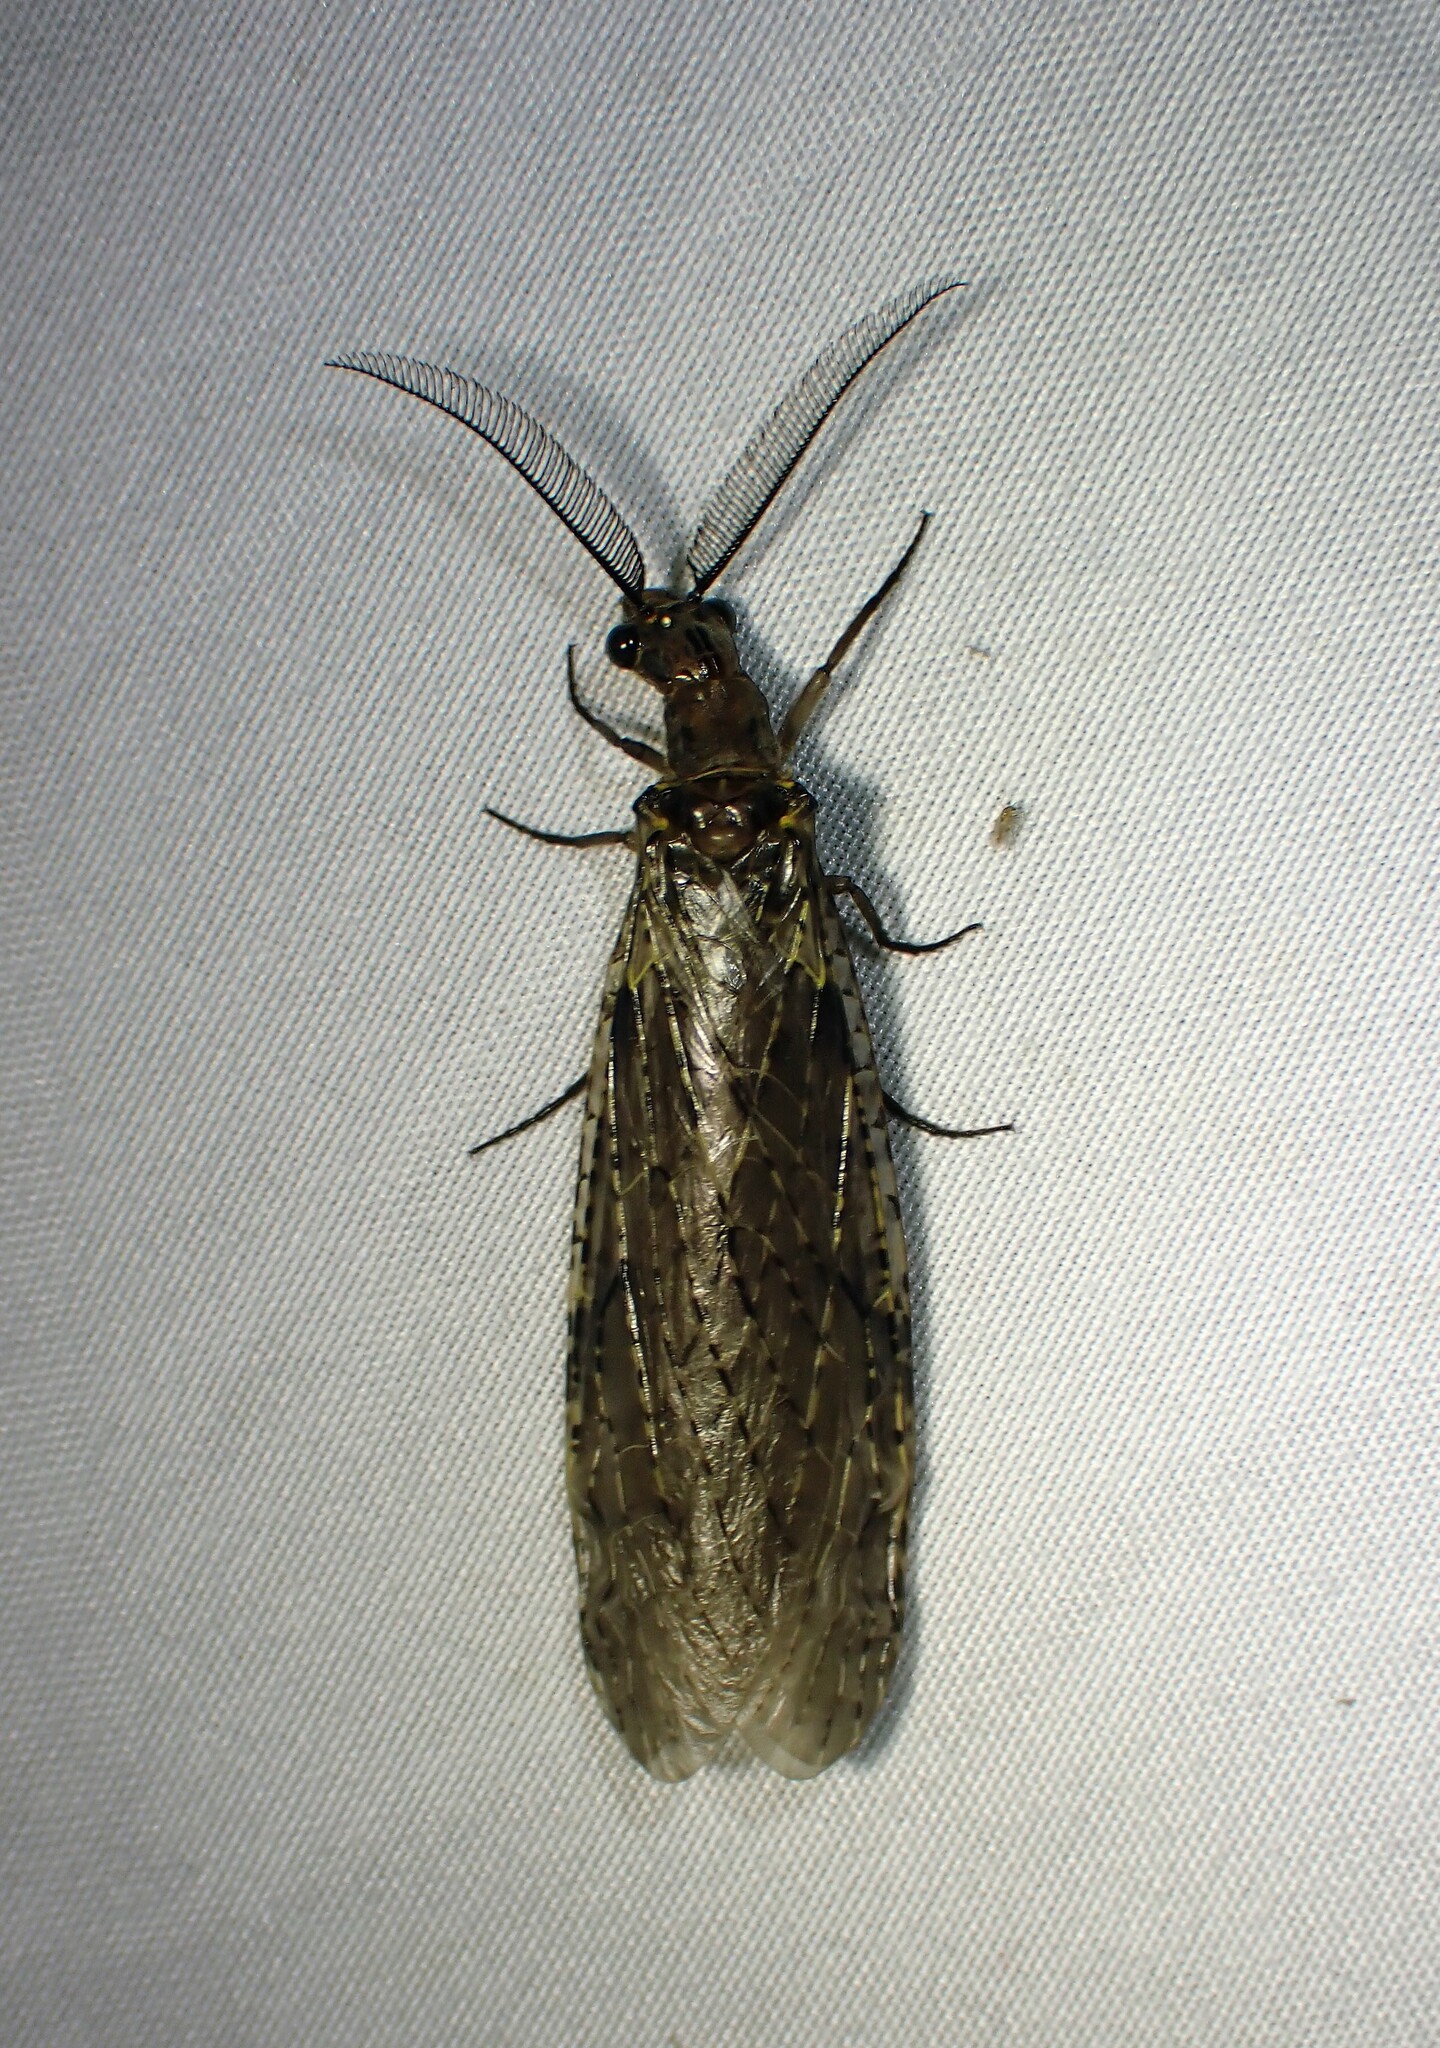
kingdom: Animalia
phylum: Arthropoda
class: Insecta
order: Megaloptera
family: Corydalidae
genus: Chauliodes
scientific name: Chauliodes rastricornis
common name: Spring fishfly
